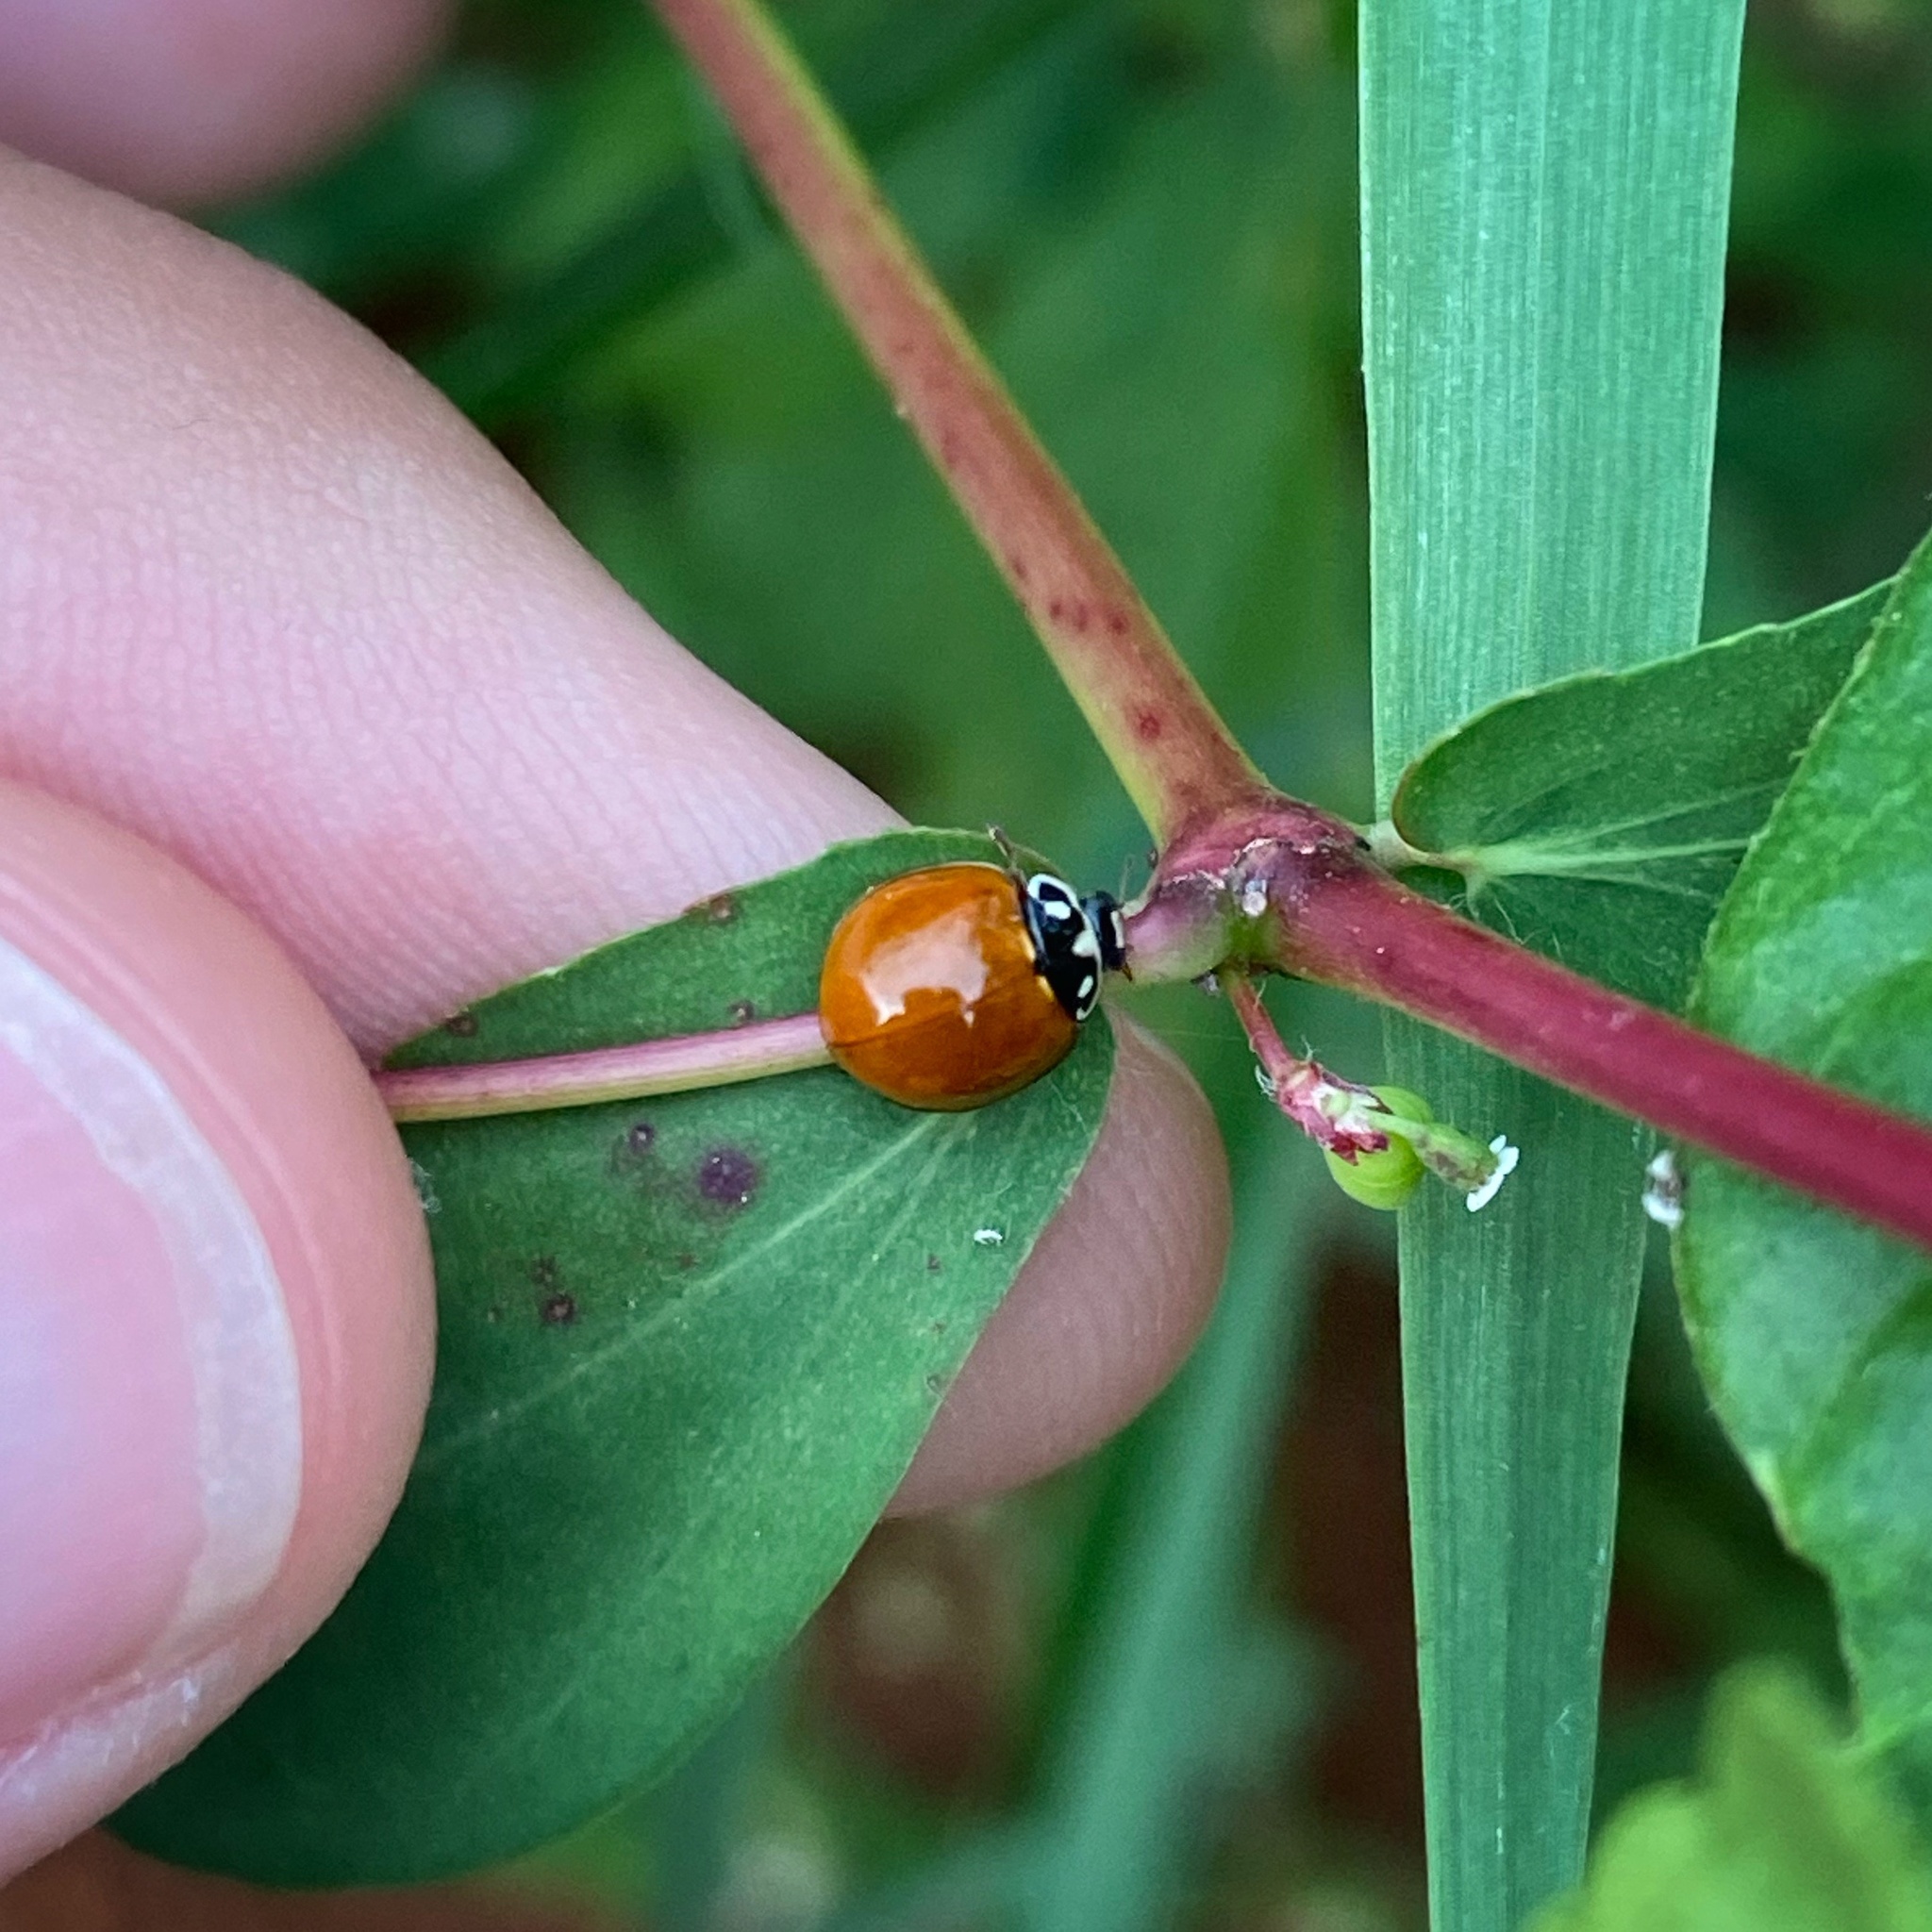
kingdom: Animalia
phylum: Arthropoda
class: Insecta
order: Coleoptera
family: Coccinellidae
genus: Cycloneda
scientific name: Cycloneda sanguinea
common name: Ladybird beetle
